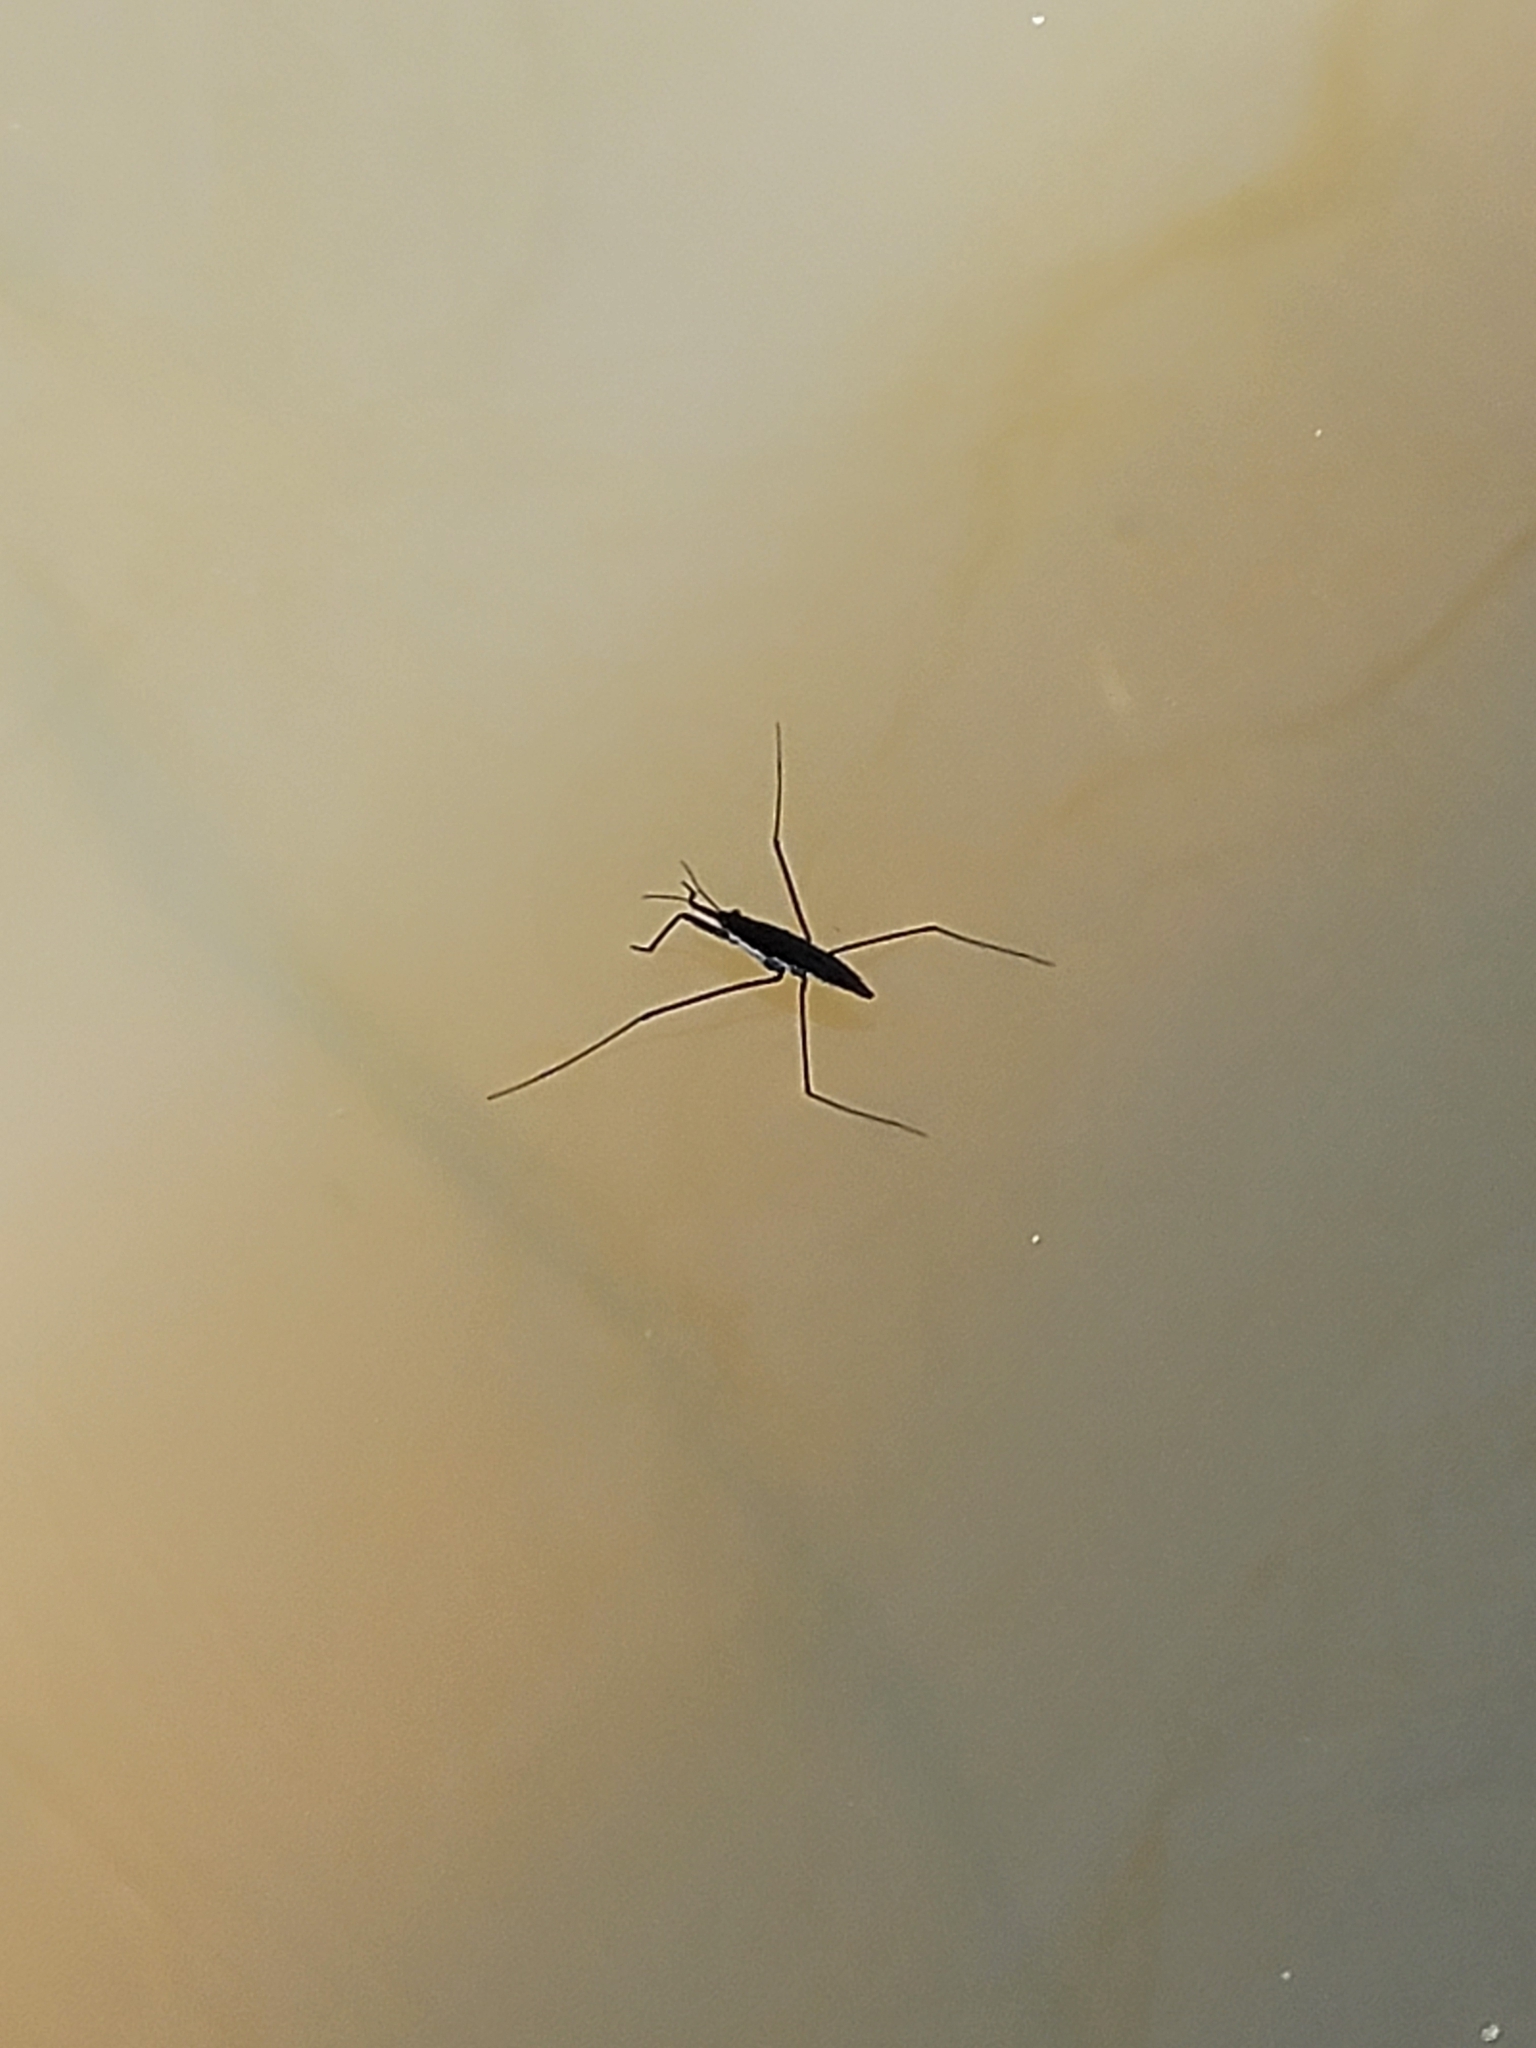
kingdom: Animalia
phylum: Arthropoda
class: Insecta
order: Hemiptera
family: Gerridae
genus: Aquarius
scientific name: Aquarius remigis
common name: Common water strider
